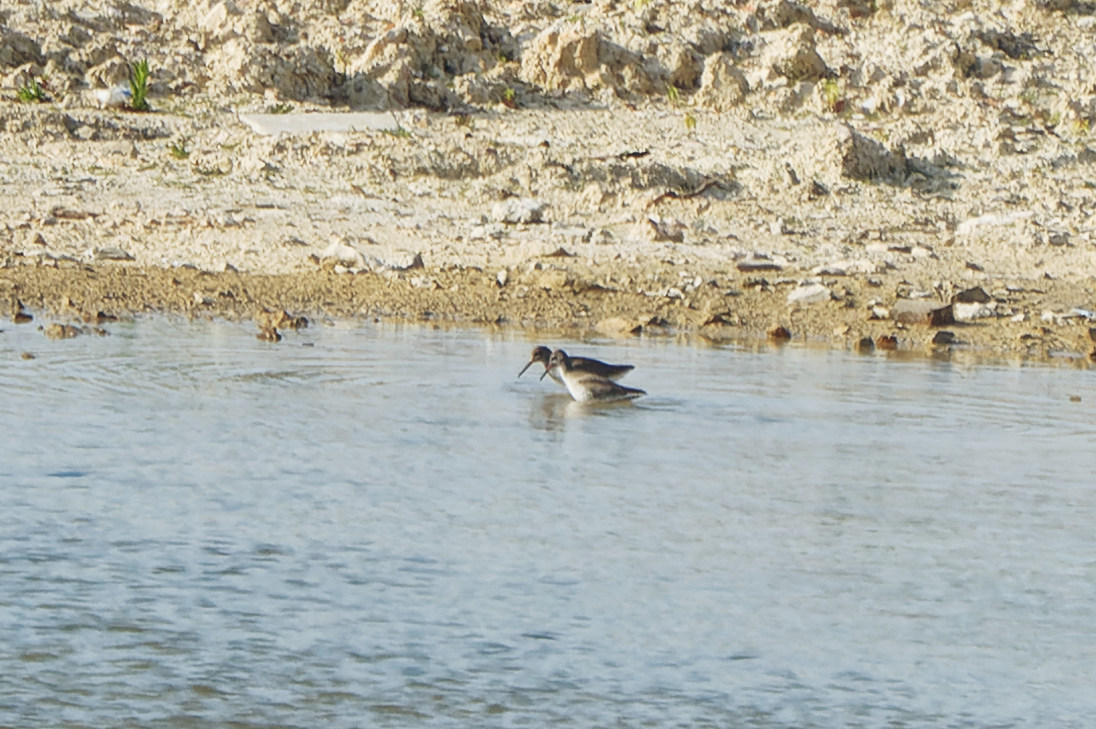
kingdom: Animalia
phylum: Chordata
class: Aves
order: Charadriiformes
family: Scolopacidae
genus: Tringa
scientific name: Tringa totanus
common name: Common redshank
